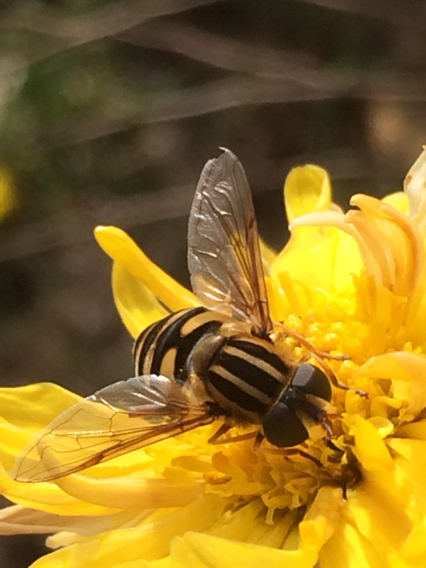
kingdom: Animalia
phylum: Arthropoda
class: Insecta
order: Diptera
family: Syrphidae
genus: Helophilus
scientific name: Helophilus fasciatus
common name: Narrow-headed marsh fly
